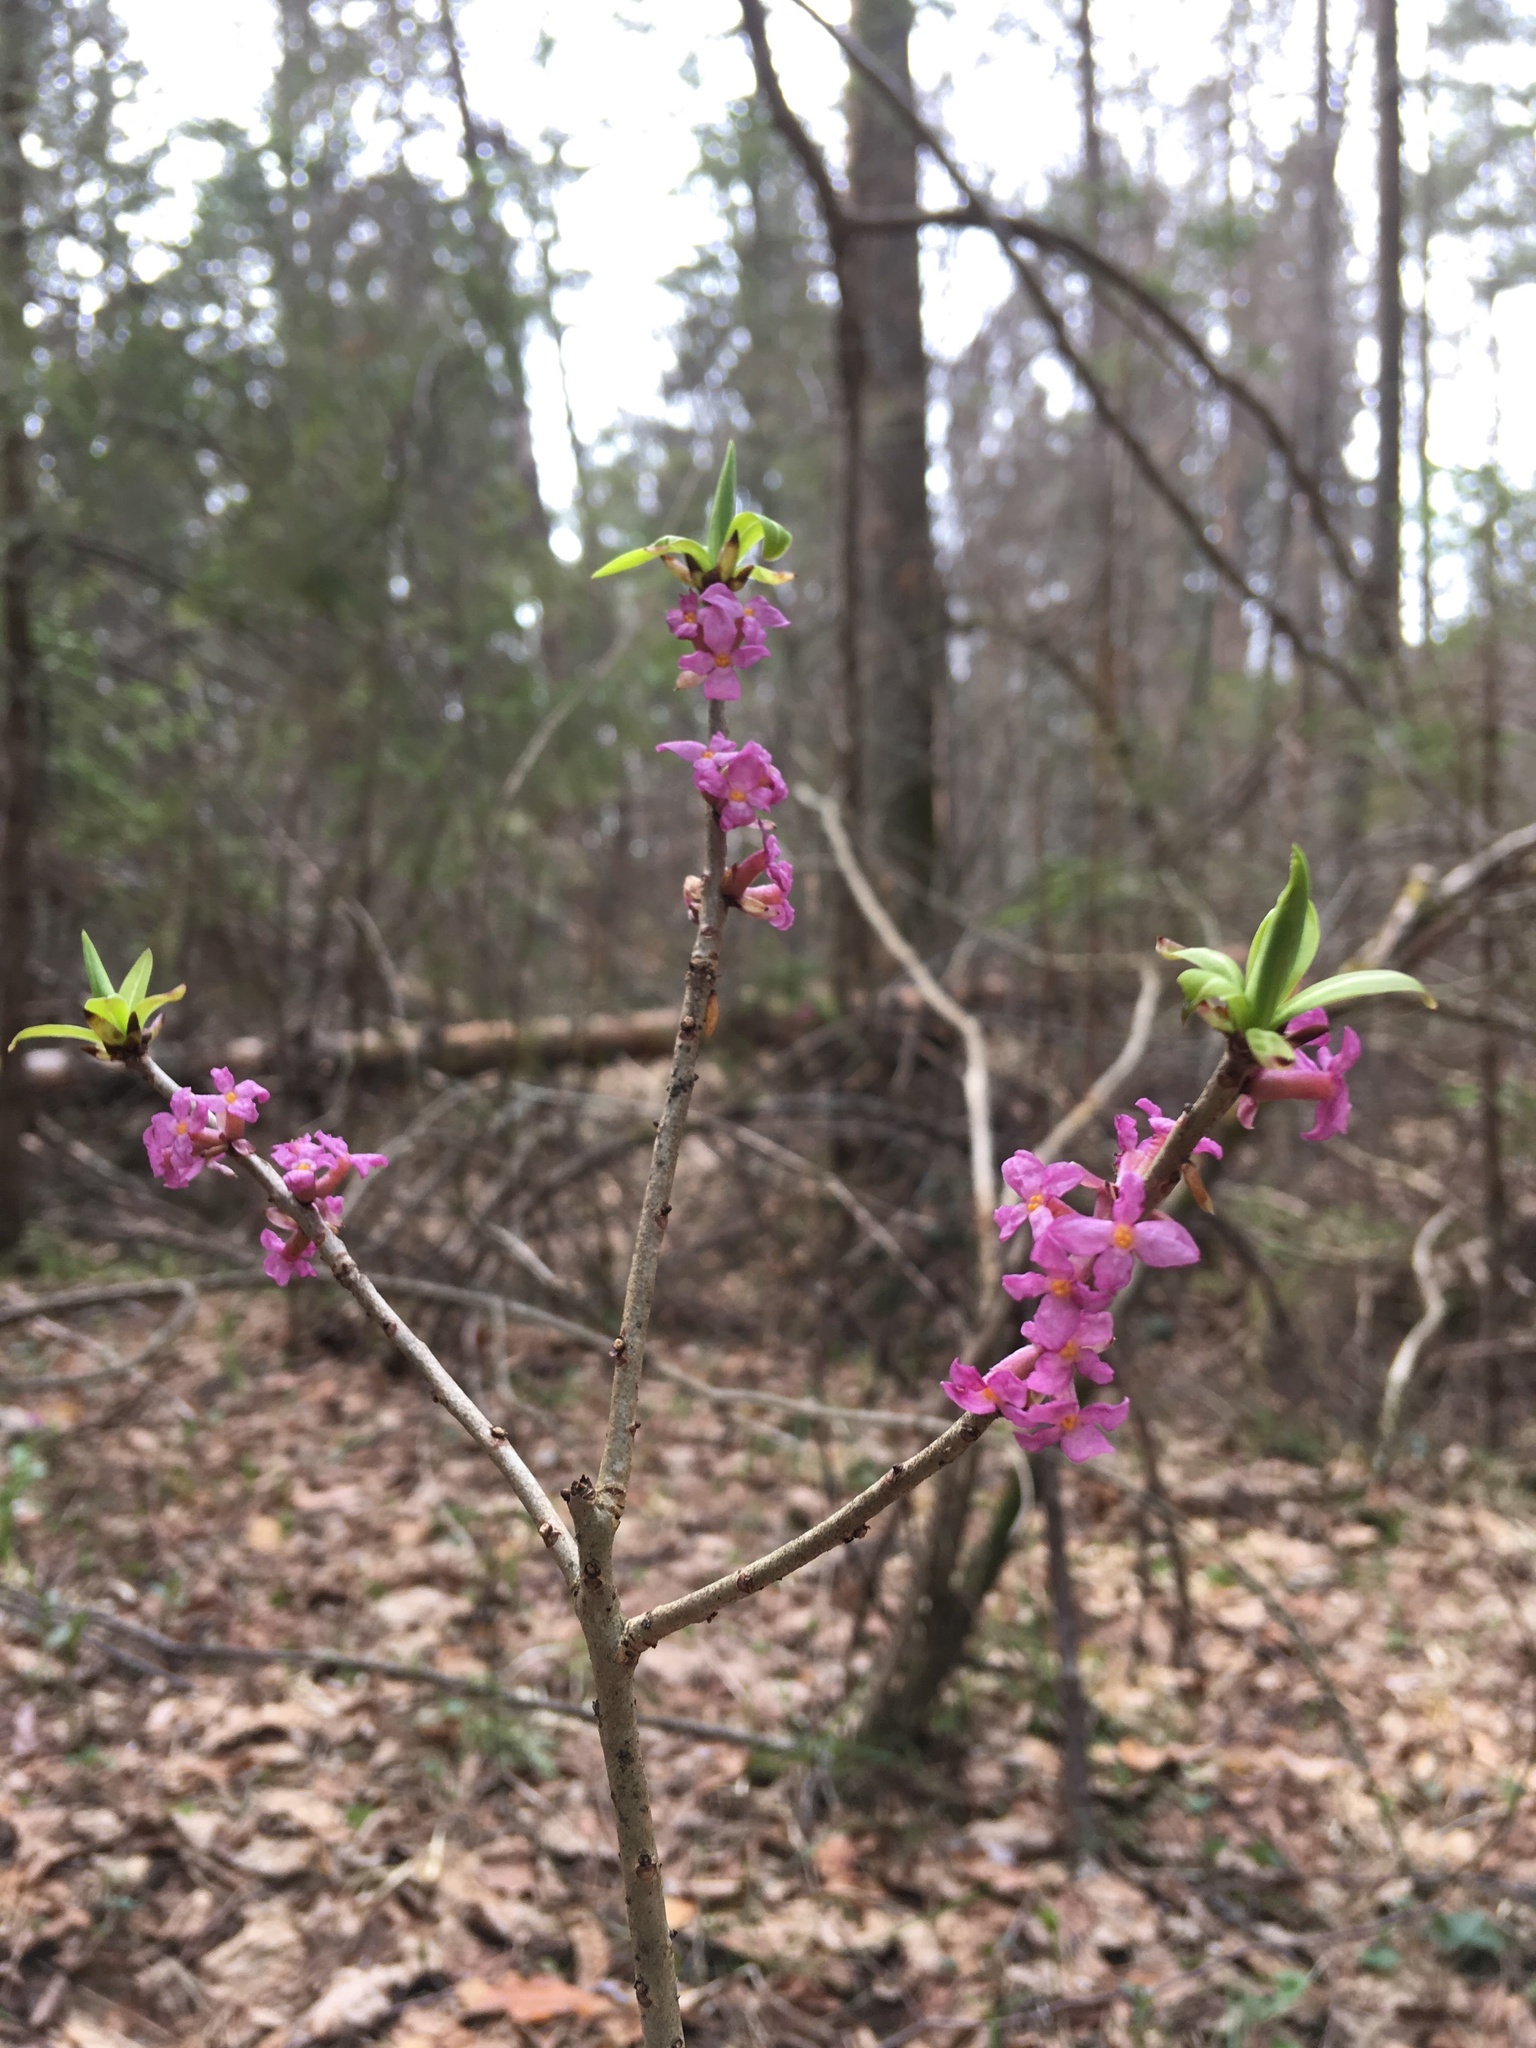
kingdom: Plantae
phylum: Tracheophyta
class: Magnoliopsida
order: Malvales
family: Thymelaeaceae
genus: Daphne
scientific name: Daphne mezereum
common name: Mezereon
